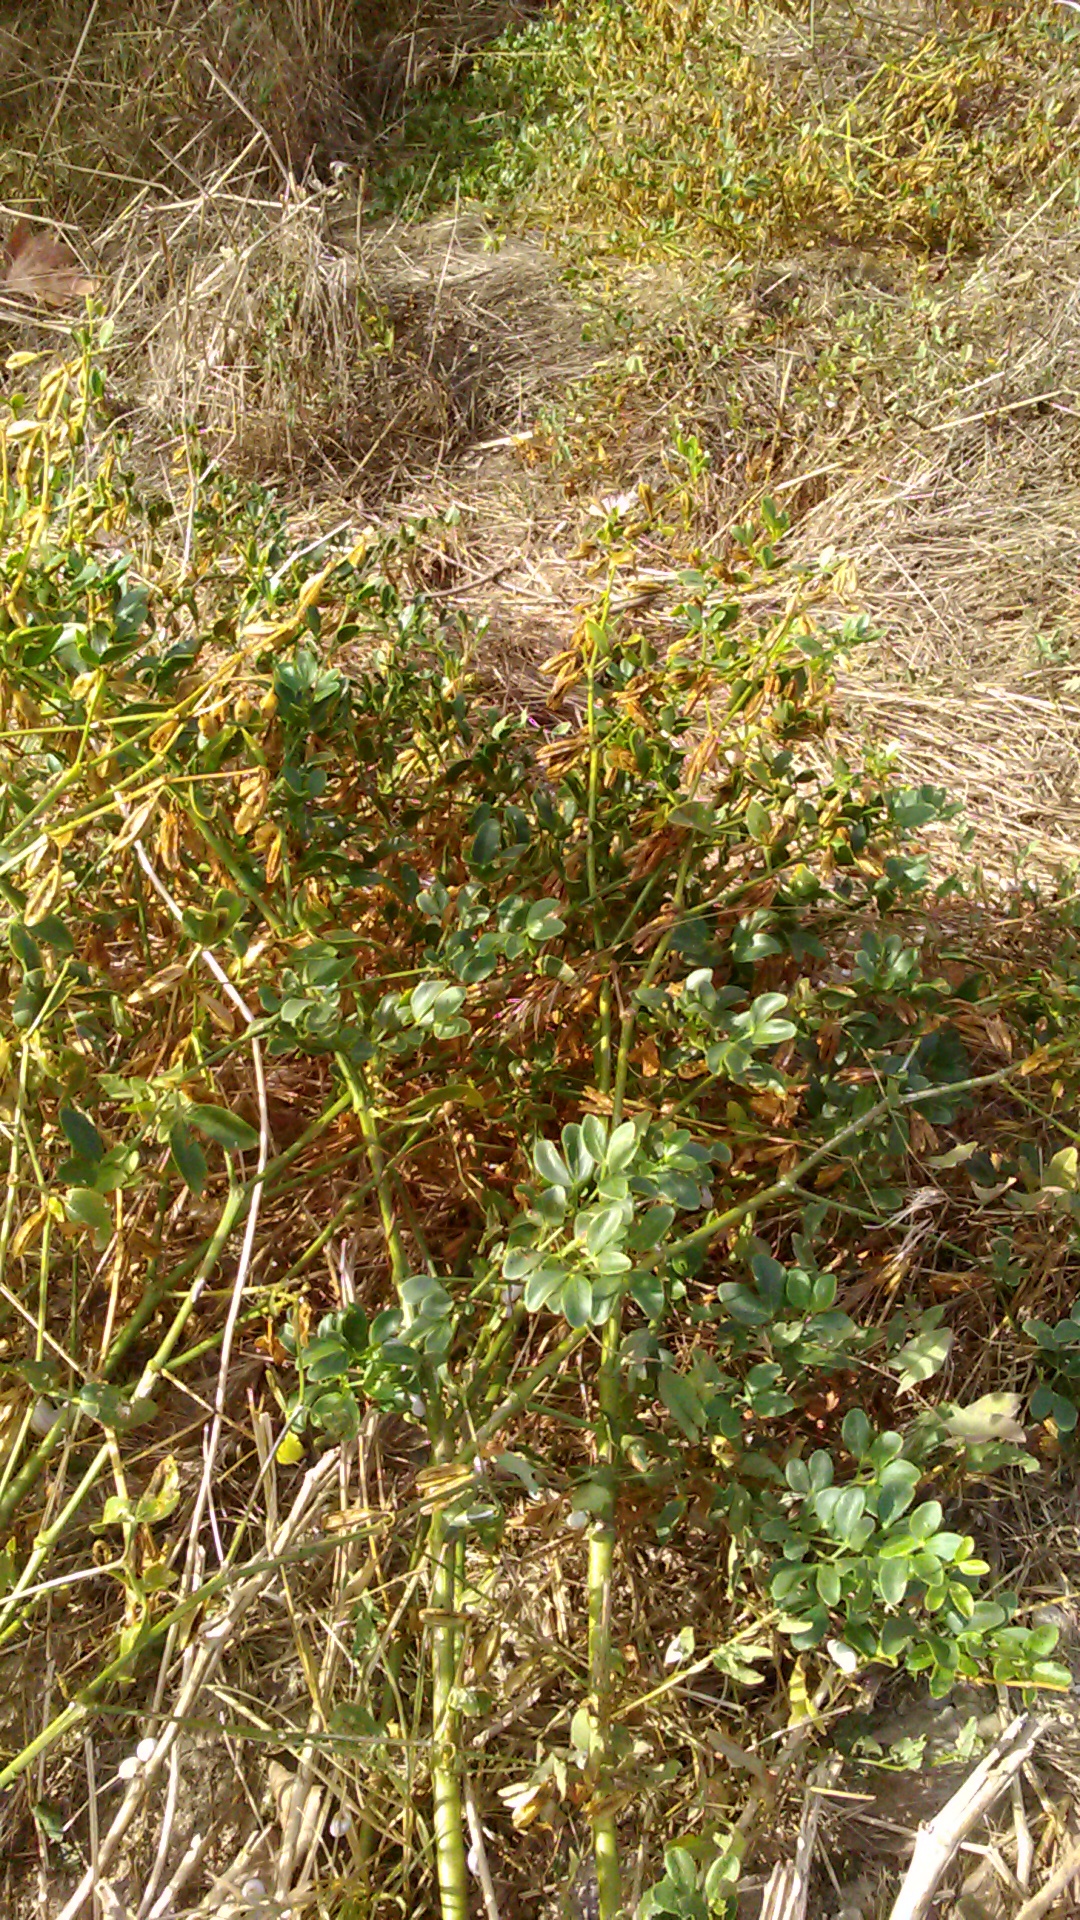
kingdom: Plantae
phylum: Tracheophyta
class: Magnoliopsida
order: Zygophyllales
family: Zygophyllaceae
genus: Zygophyllum
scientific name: Zygophyllum fabago
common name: Syrian beancaper
